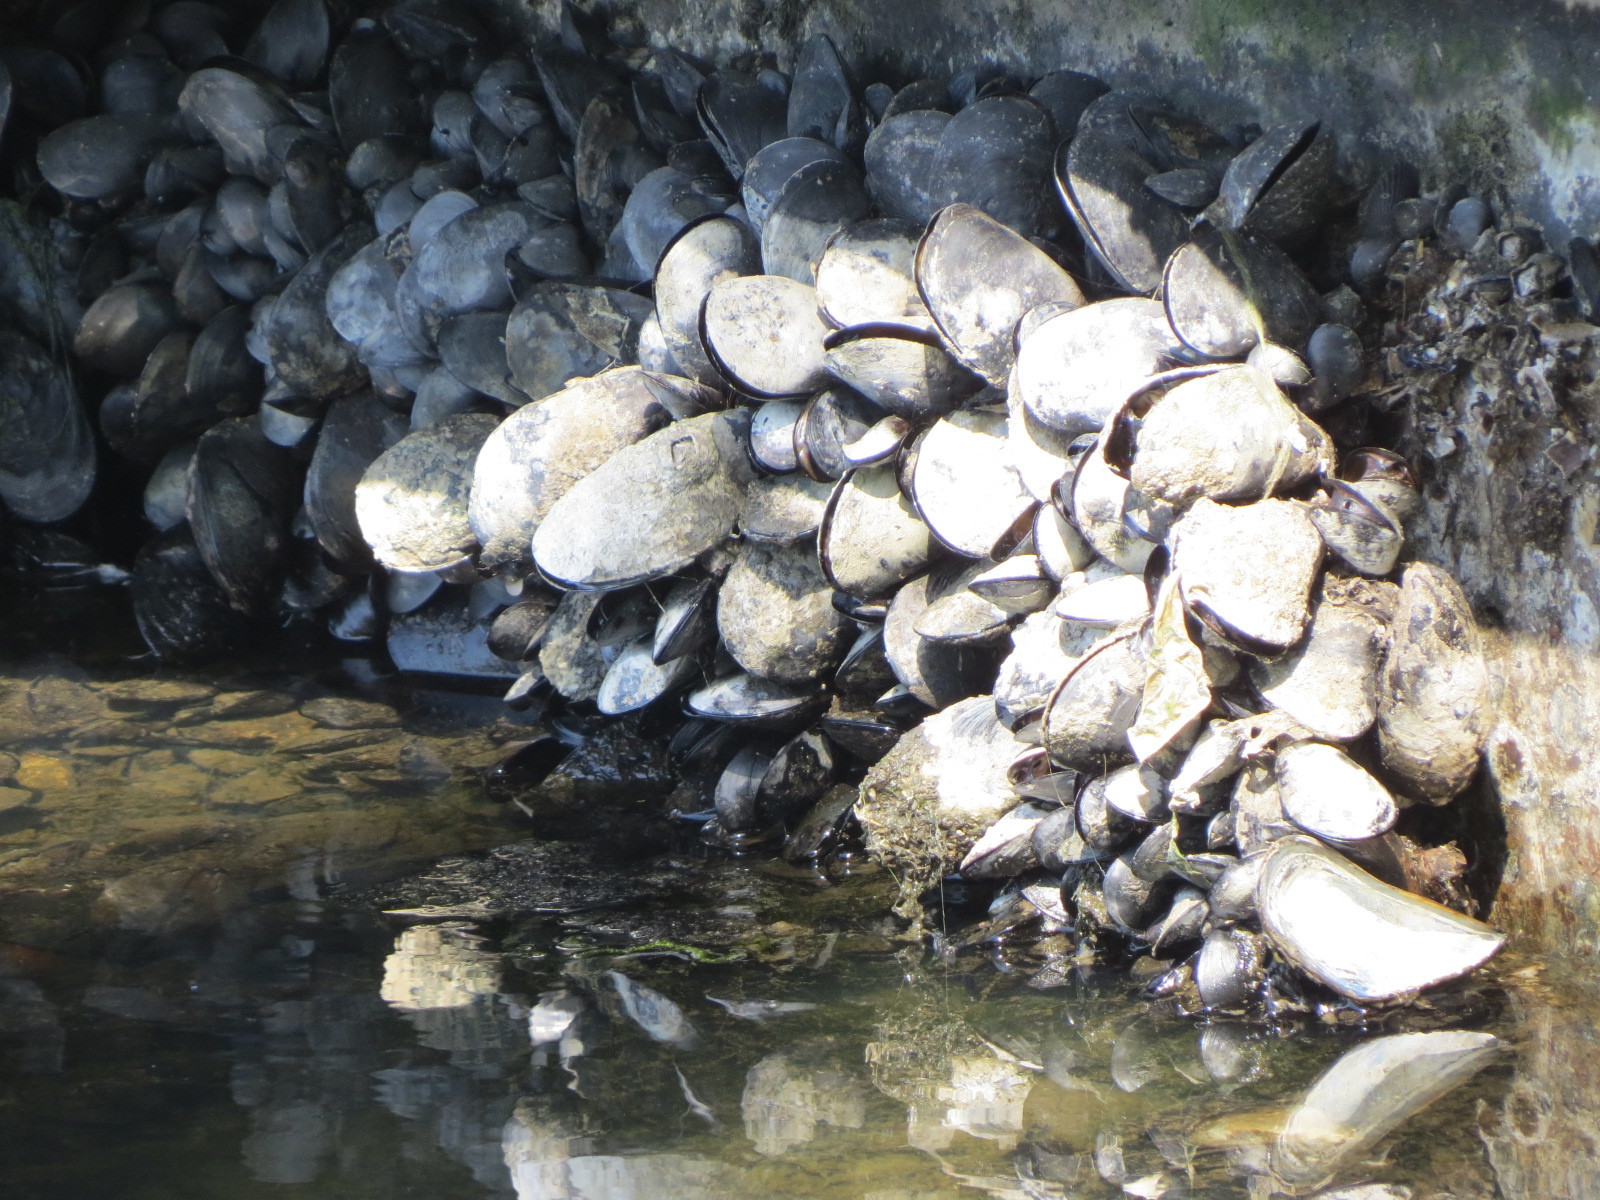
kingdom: Animalia
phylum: Mollusca
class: Bivalvia
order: Mytilida
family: Mytilidae
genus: Mytilus
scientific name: Mytilus
